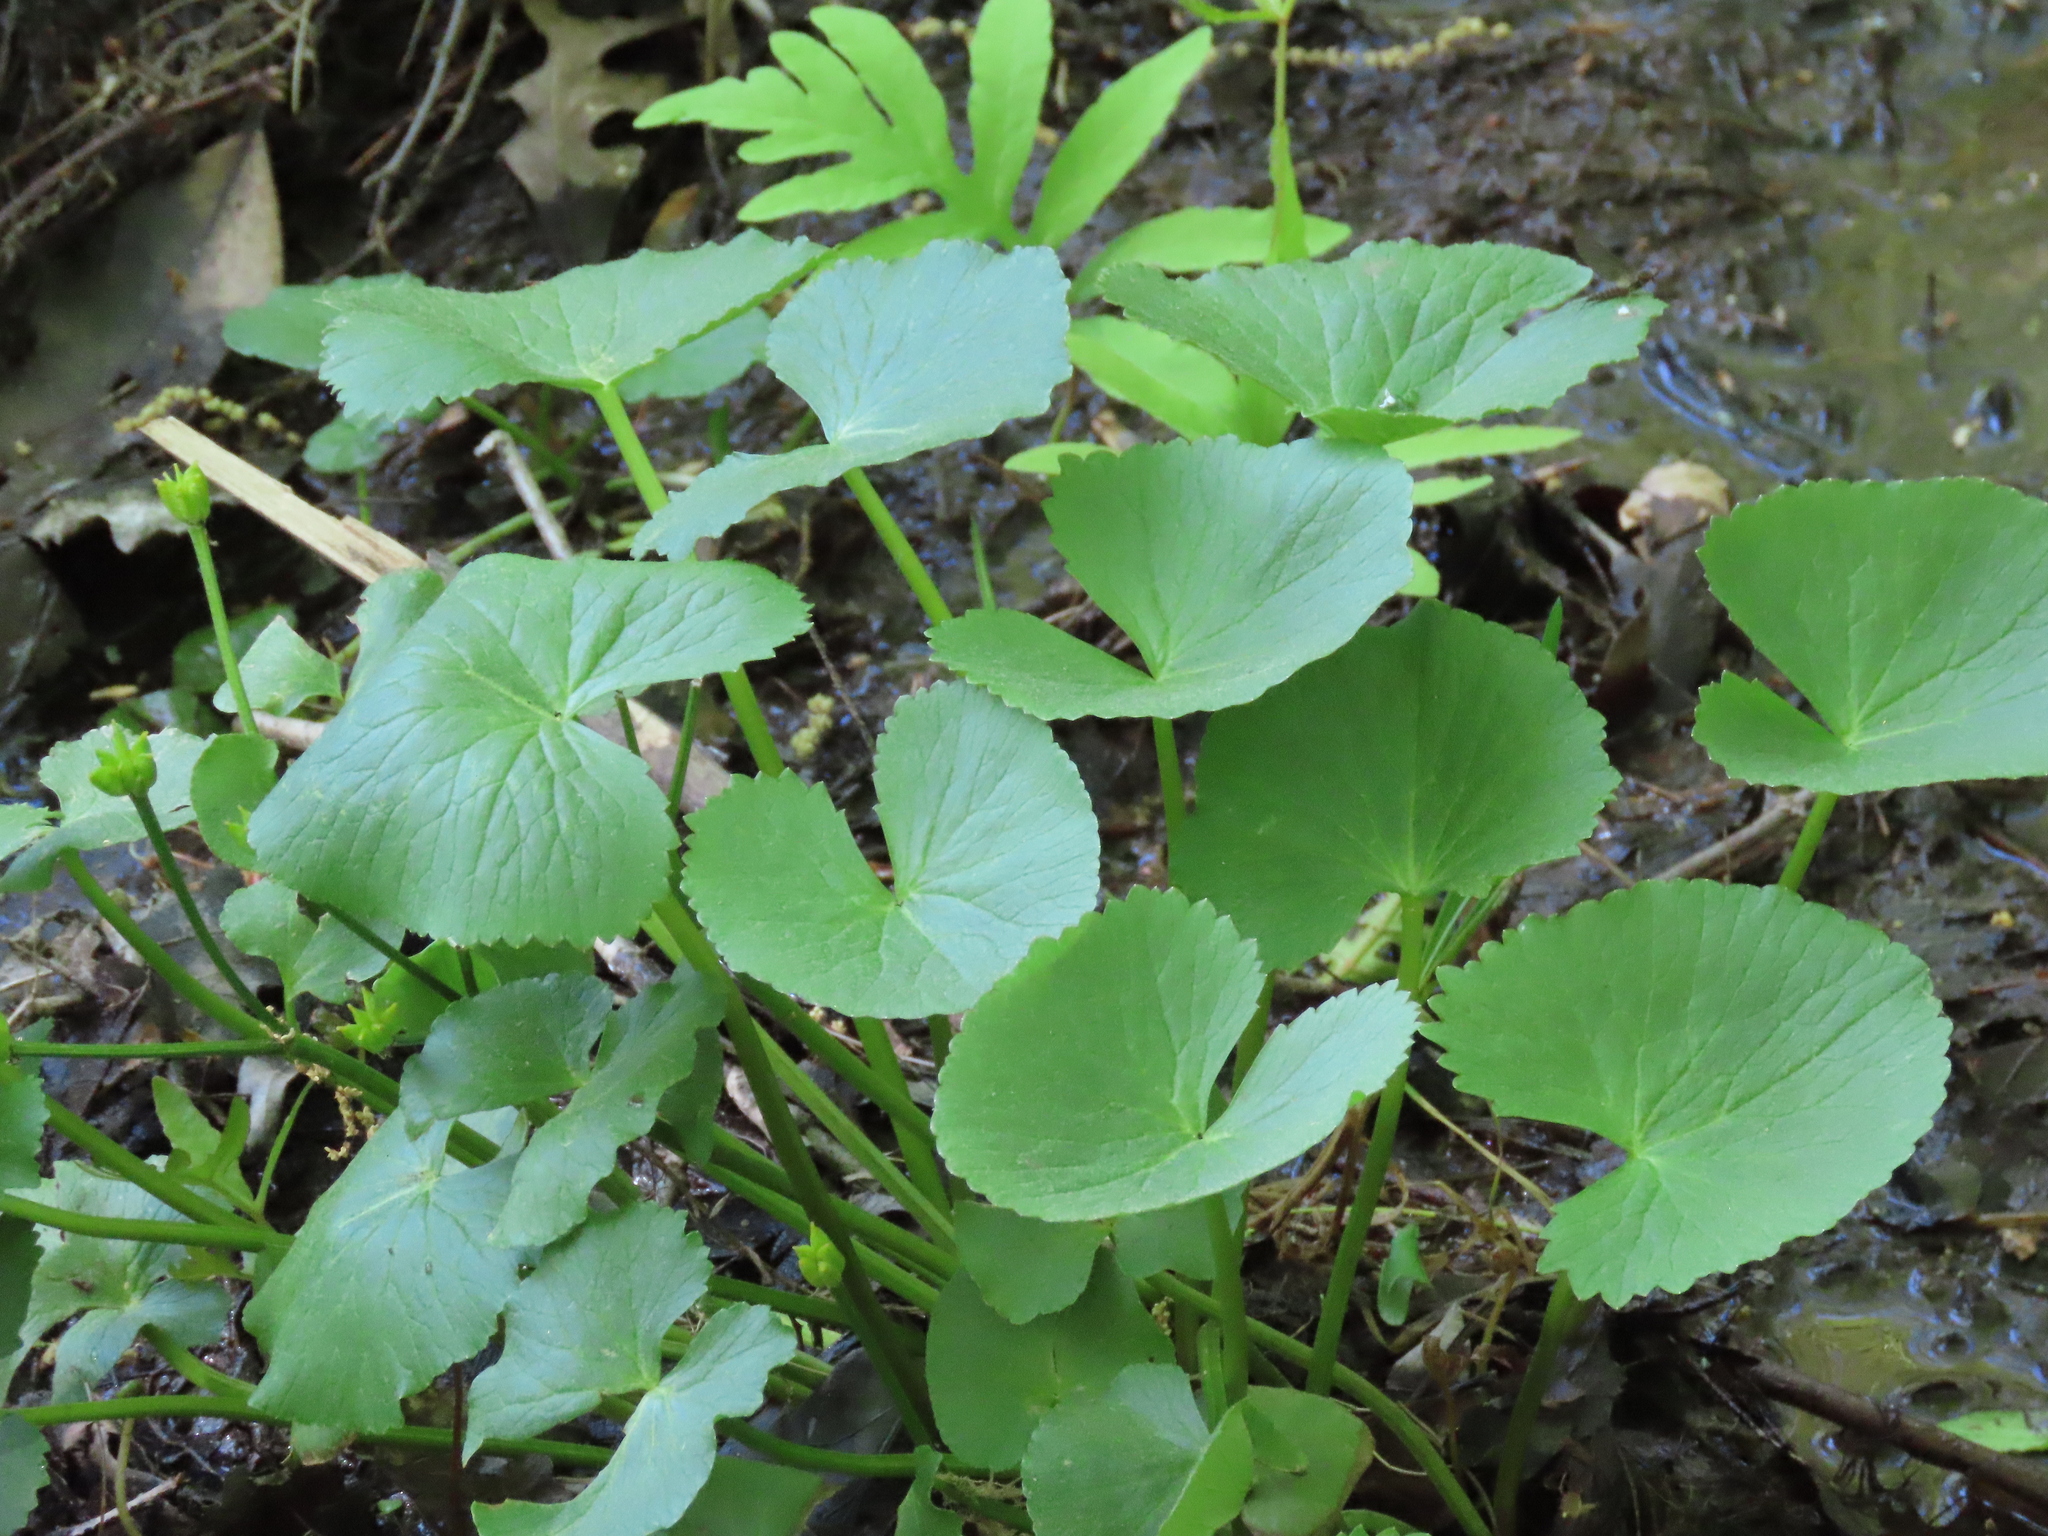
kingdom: Plantae
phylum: Tracheophyta
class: Magnoliopsida
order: Ranunculales
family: Ranunculaceae
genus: Caltha
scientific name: Caltha palustris
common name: Marsh marigold
